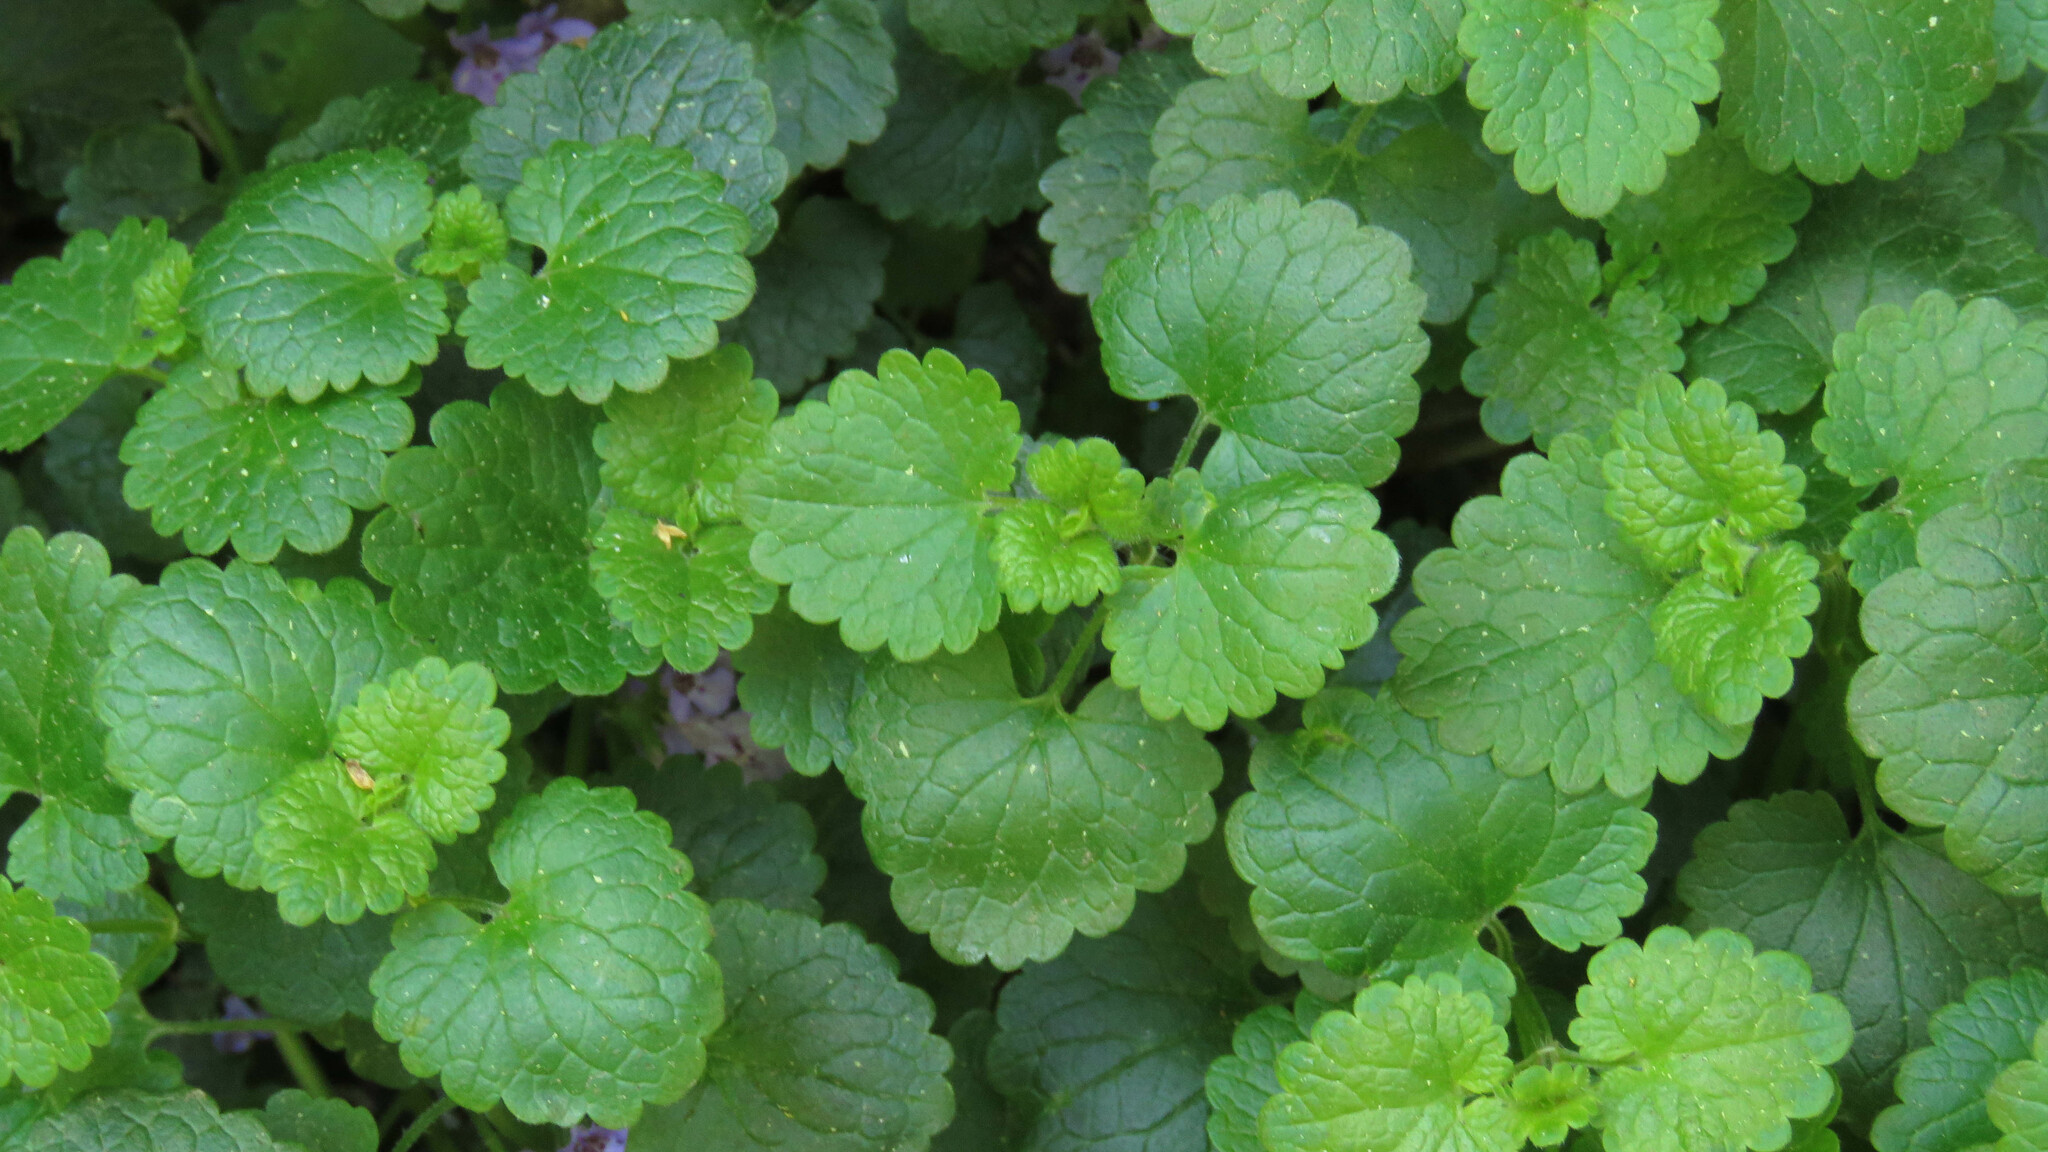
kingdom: Plantae
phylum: Tracheophyta
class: Magnoliopsida
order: Lamiales
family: Lamiaceae
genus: Glechoma
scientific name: Glechoma hederacea
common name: Ground ivy
